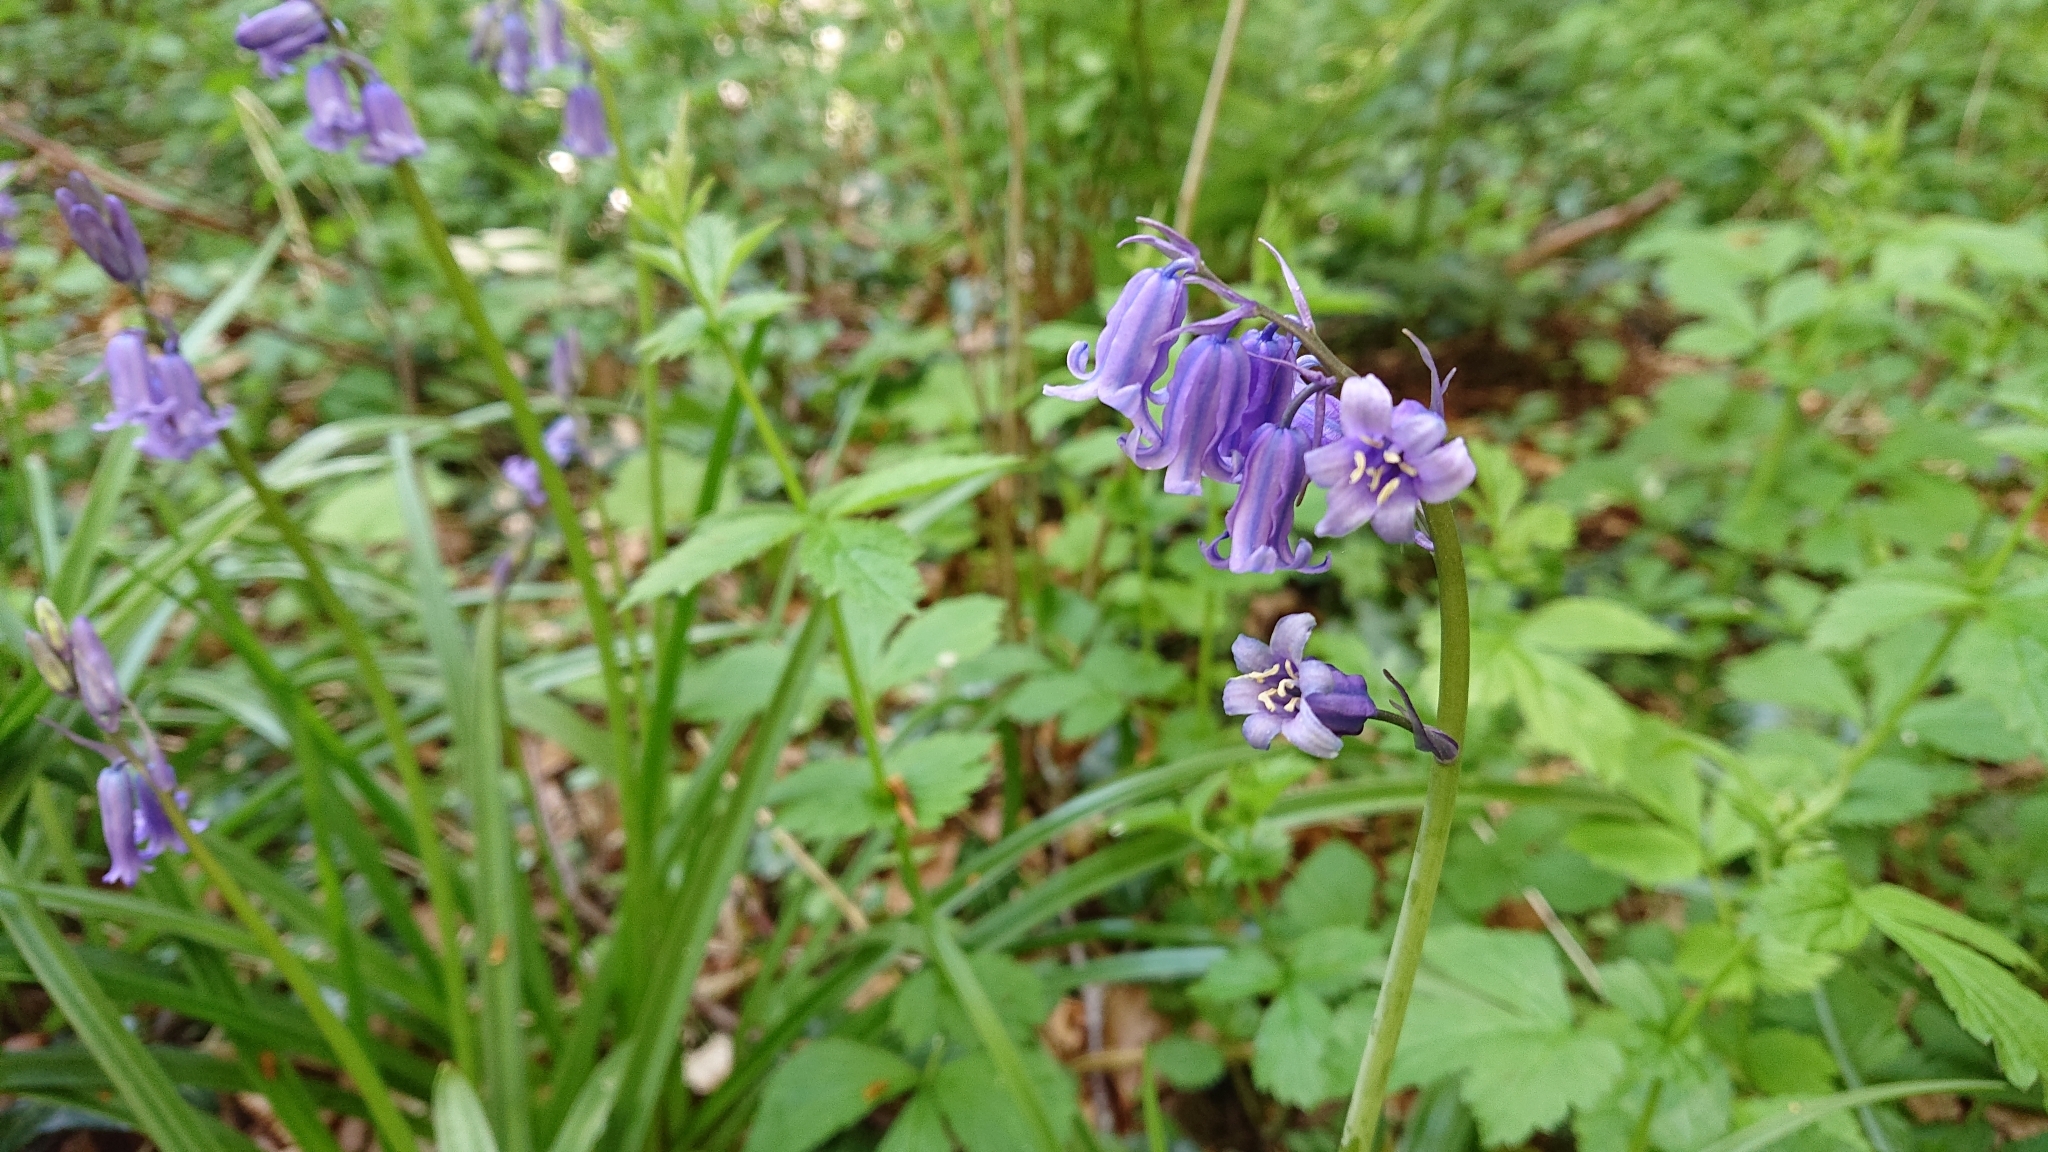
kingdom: Plantae
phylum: Tracheophyta
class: Liliopsida
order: Asparagales
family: Asparagaceae
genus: Hyacinthoides
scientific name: Hyacinthoides non-scripta
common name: Bluebell
